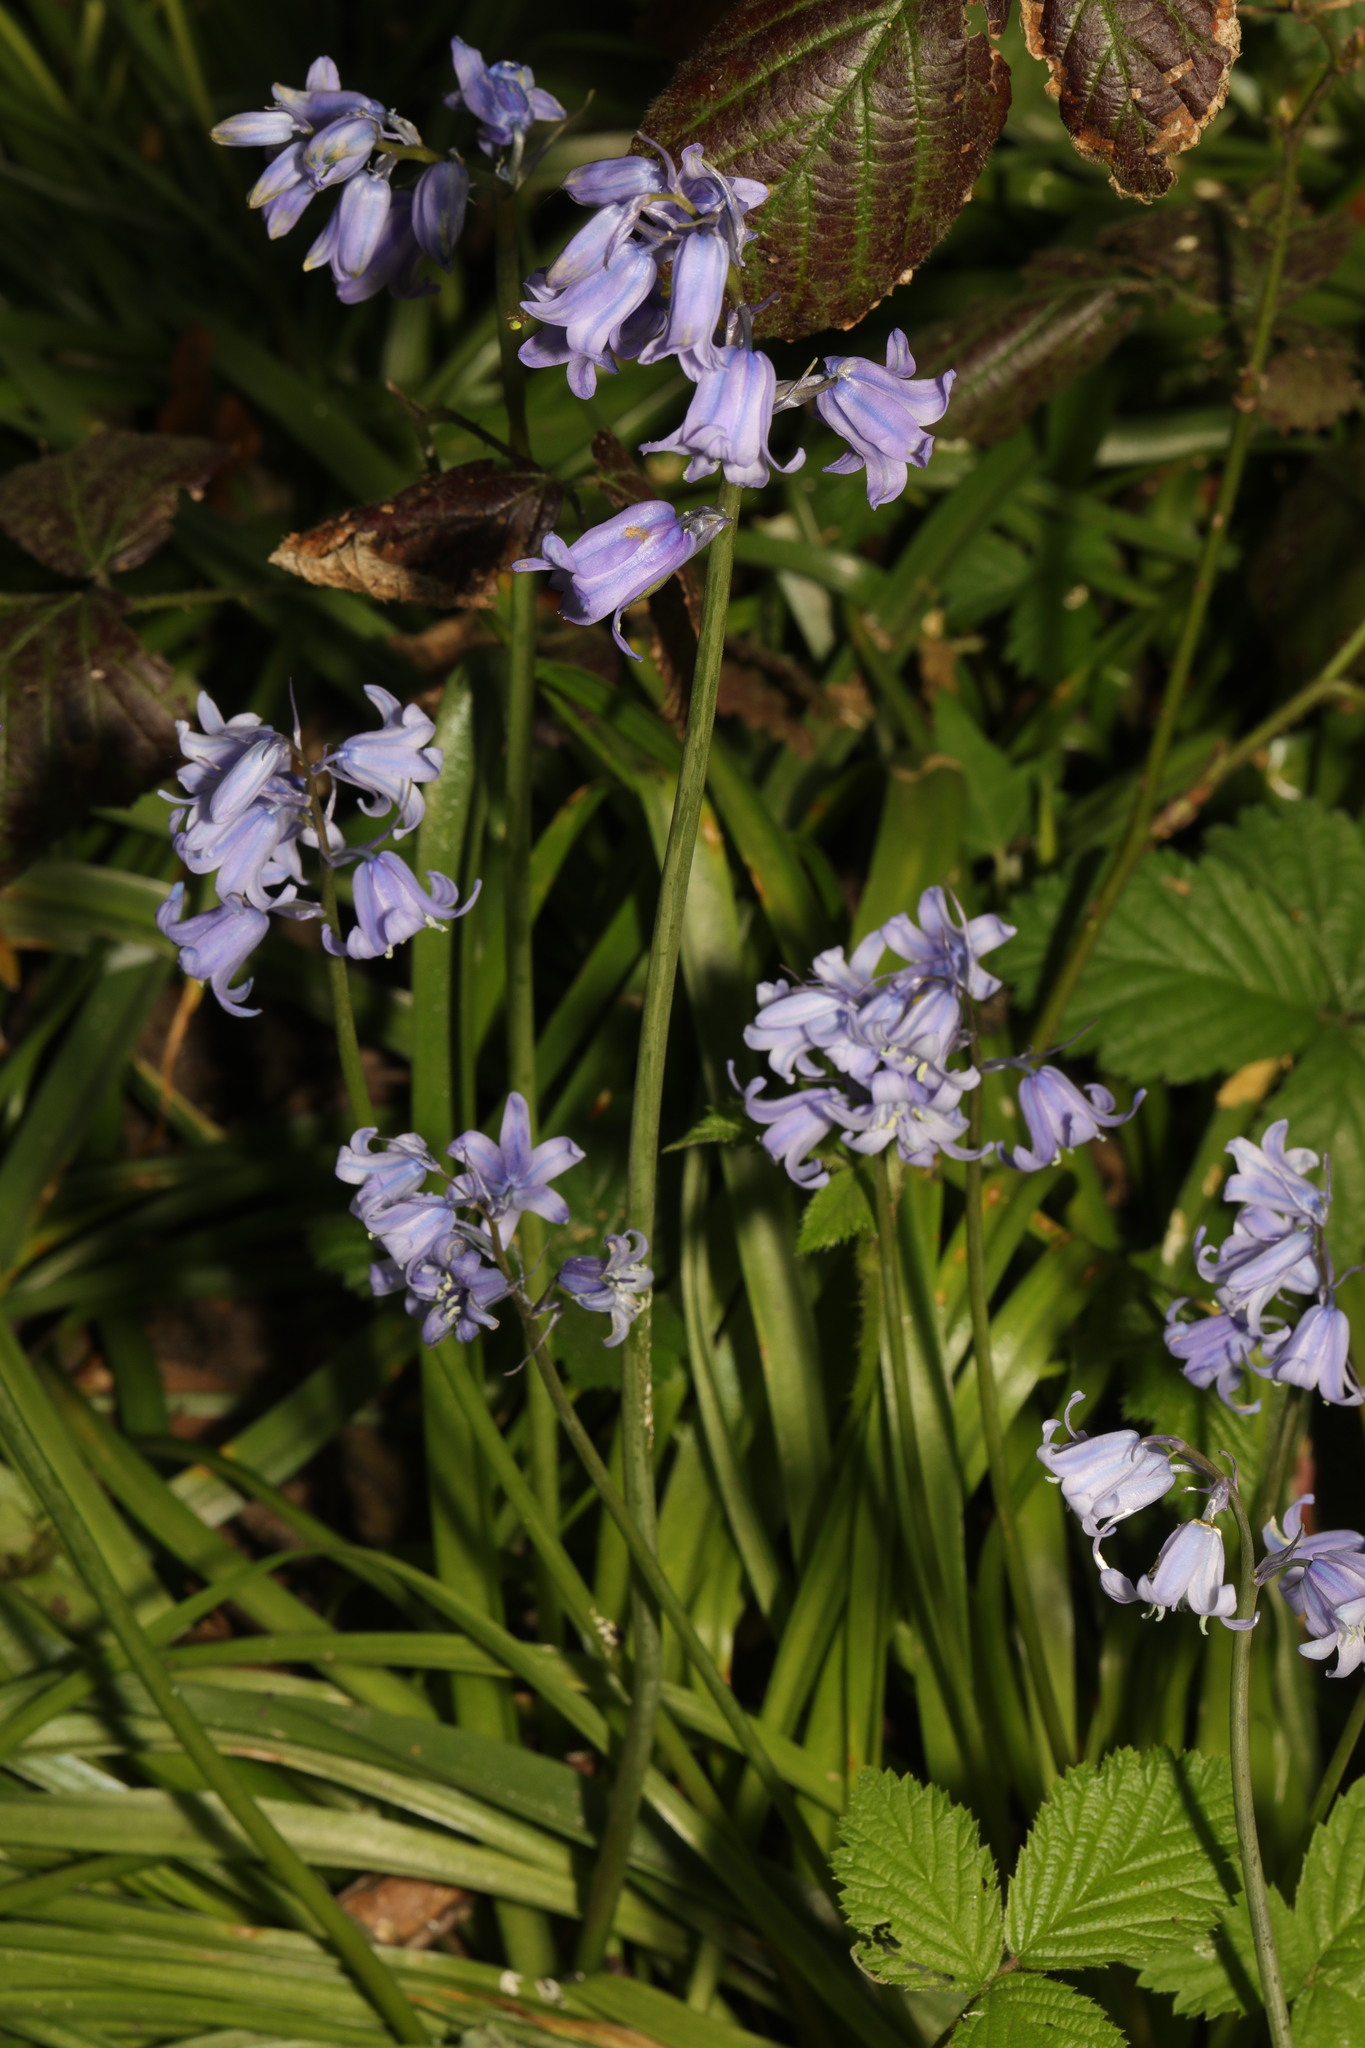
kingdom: Plantae
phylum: Tracheophyta
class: Liliopsida
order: Asparagales
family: Asparagaceae
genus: Hyacinthoides
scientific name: Hyacinthoides massartiana
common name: Hyacinthoides
